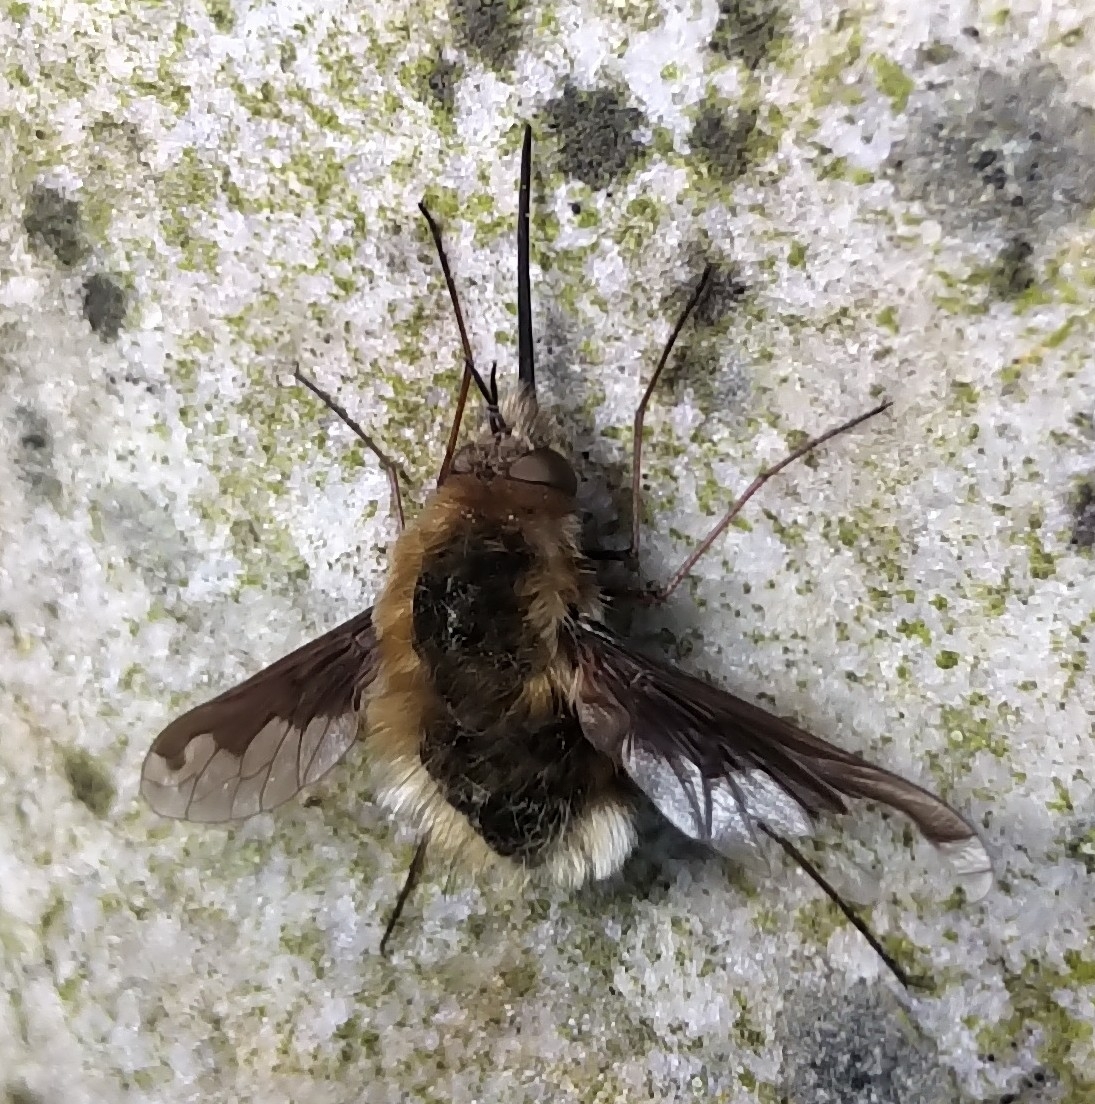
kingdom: Animalia
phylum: Arthropoda
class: Insecta
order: Diptera
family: Bombyliidae
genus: Bombylius
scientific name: Bombylius major
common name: Bee fly
